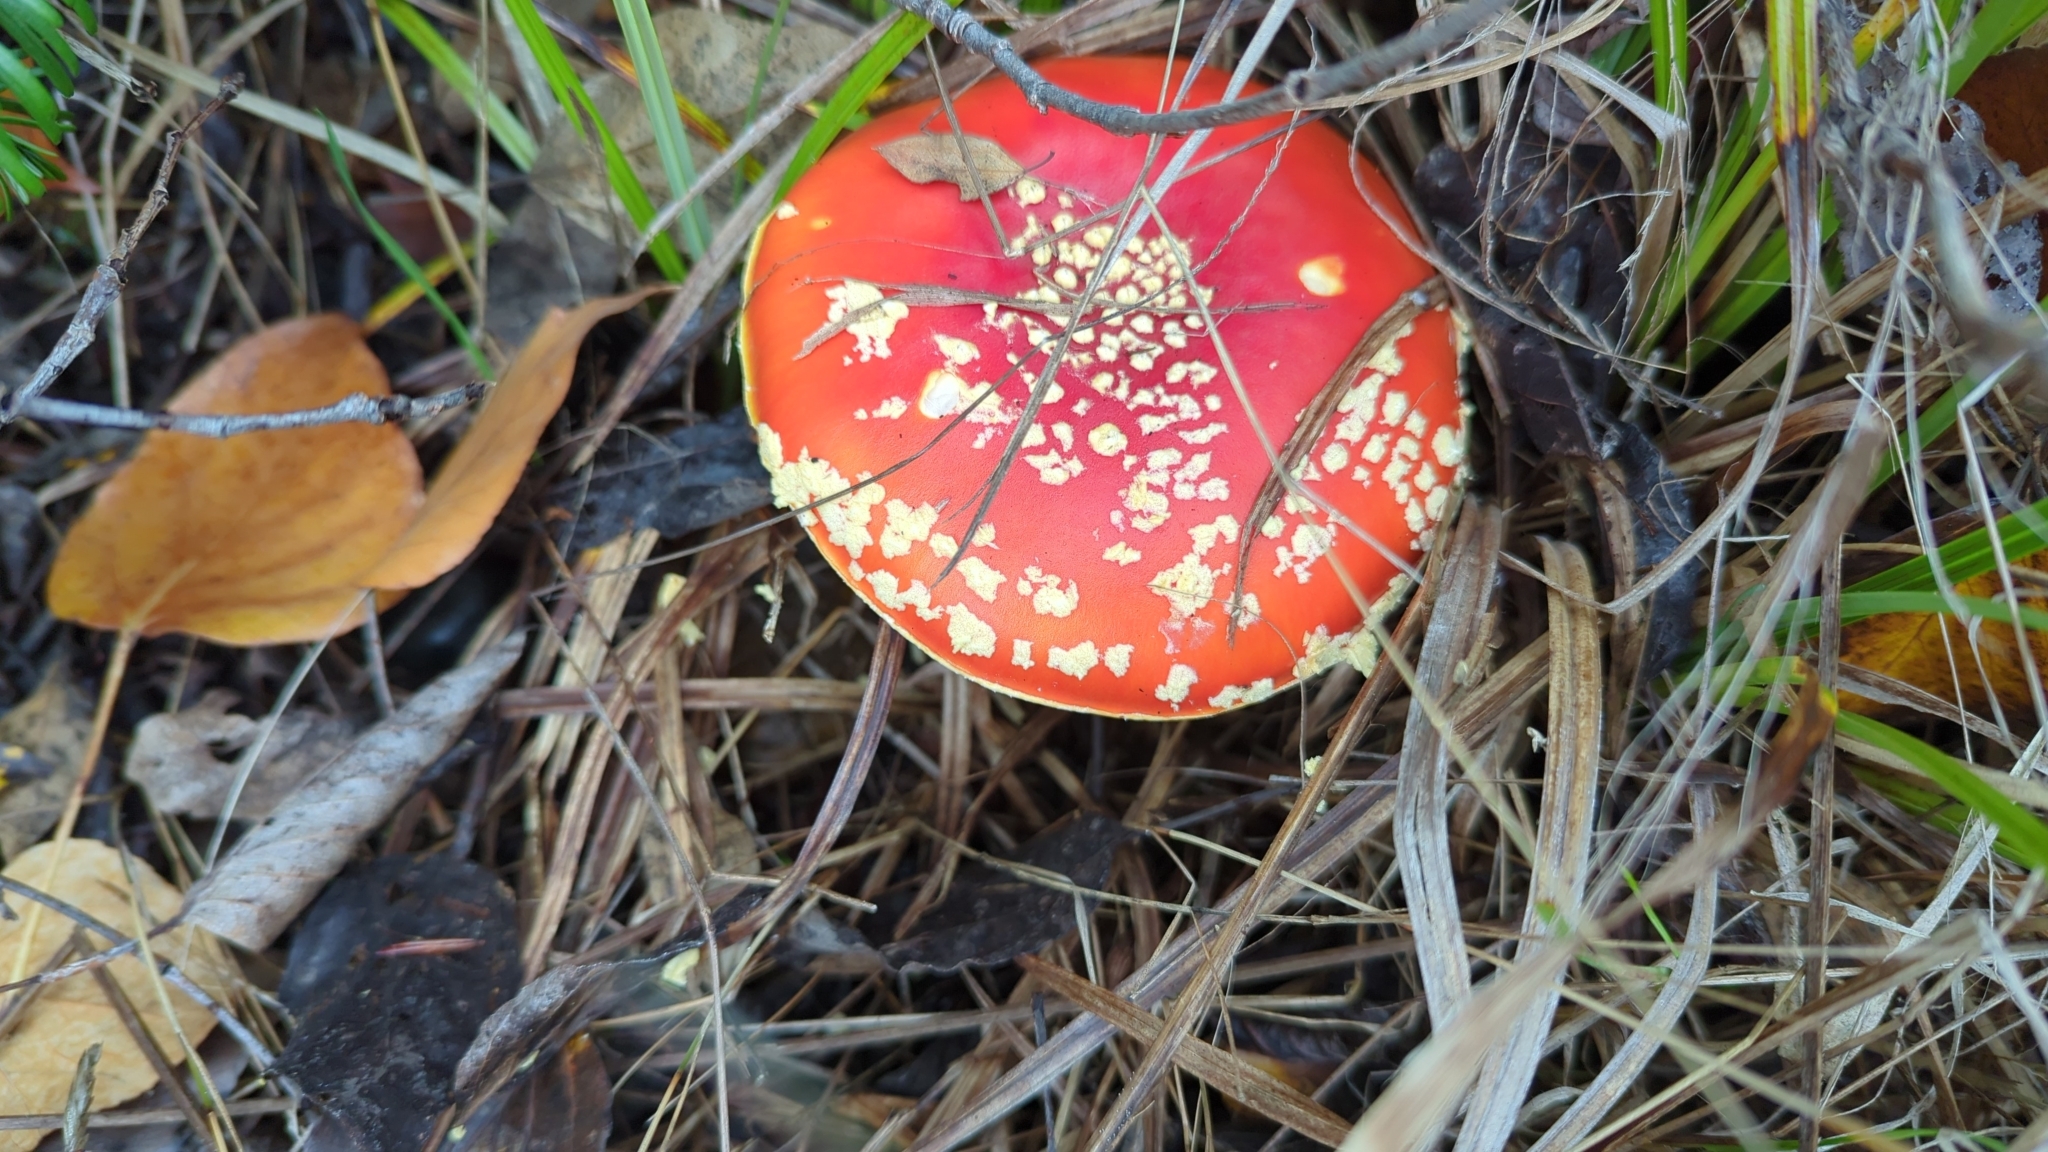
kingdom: Fungi
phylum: Basidiomycota
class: Agaricomycetes
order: Agaricales
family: Amanitaceae
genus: Amanita
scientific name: Amanita muscaria
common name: Fly agaric
